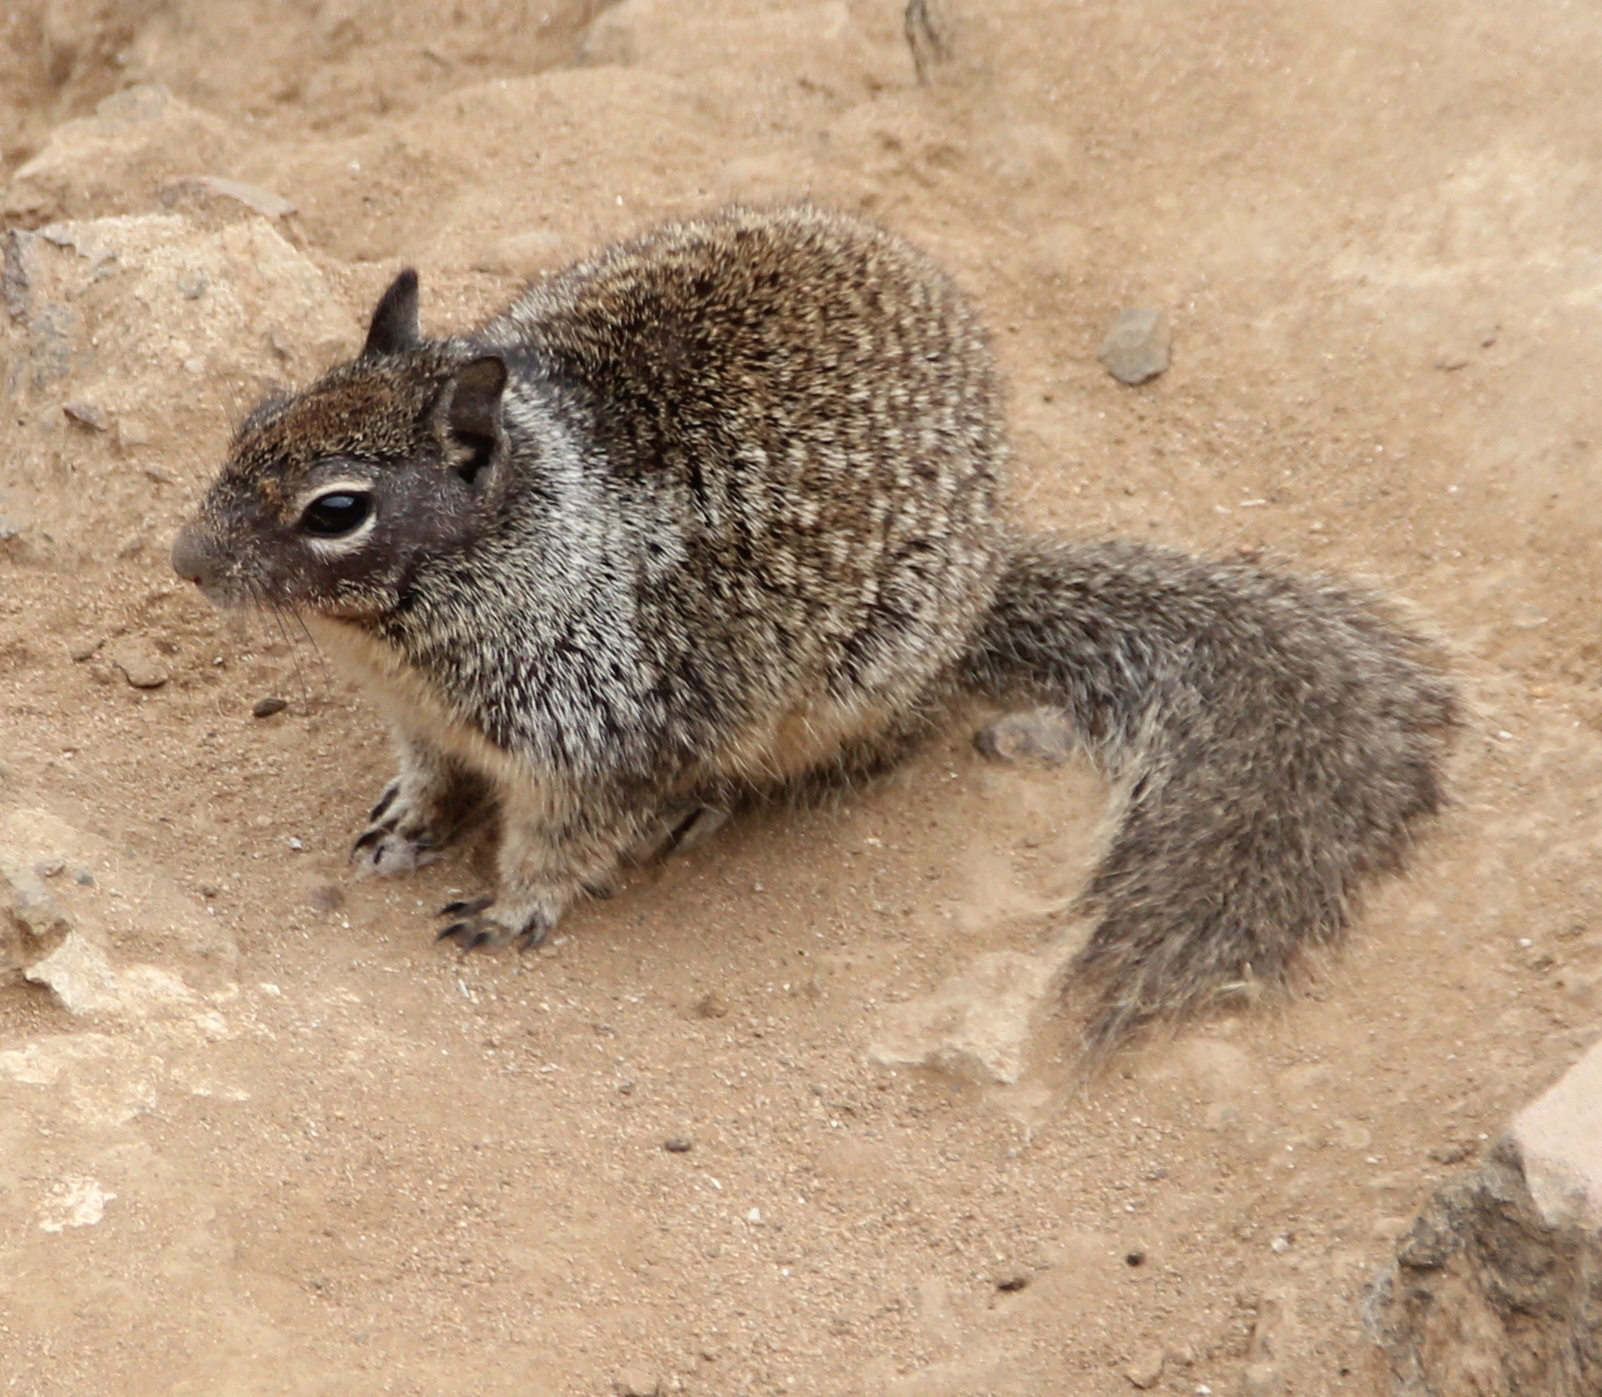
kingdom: Animalia
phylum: Chordata
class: Mammalia
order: Rodentia
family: Sciuridae
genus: Otospermophilus
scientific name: Otospermophilus beecheyi
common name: California ground squirrel
